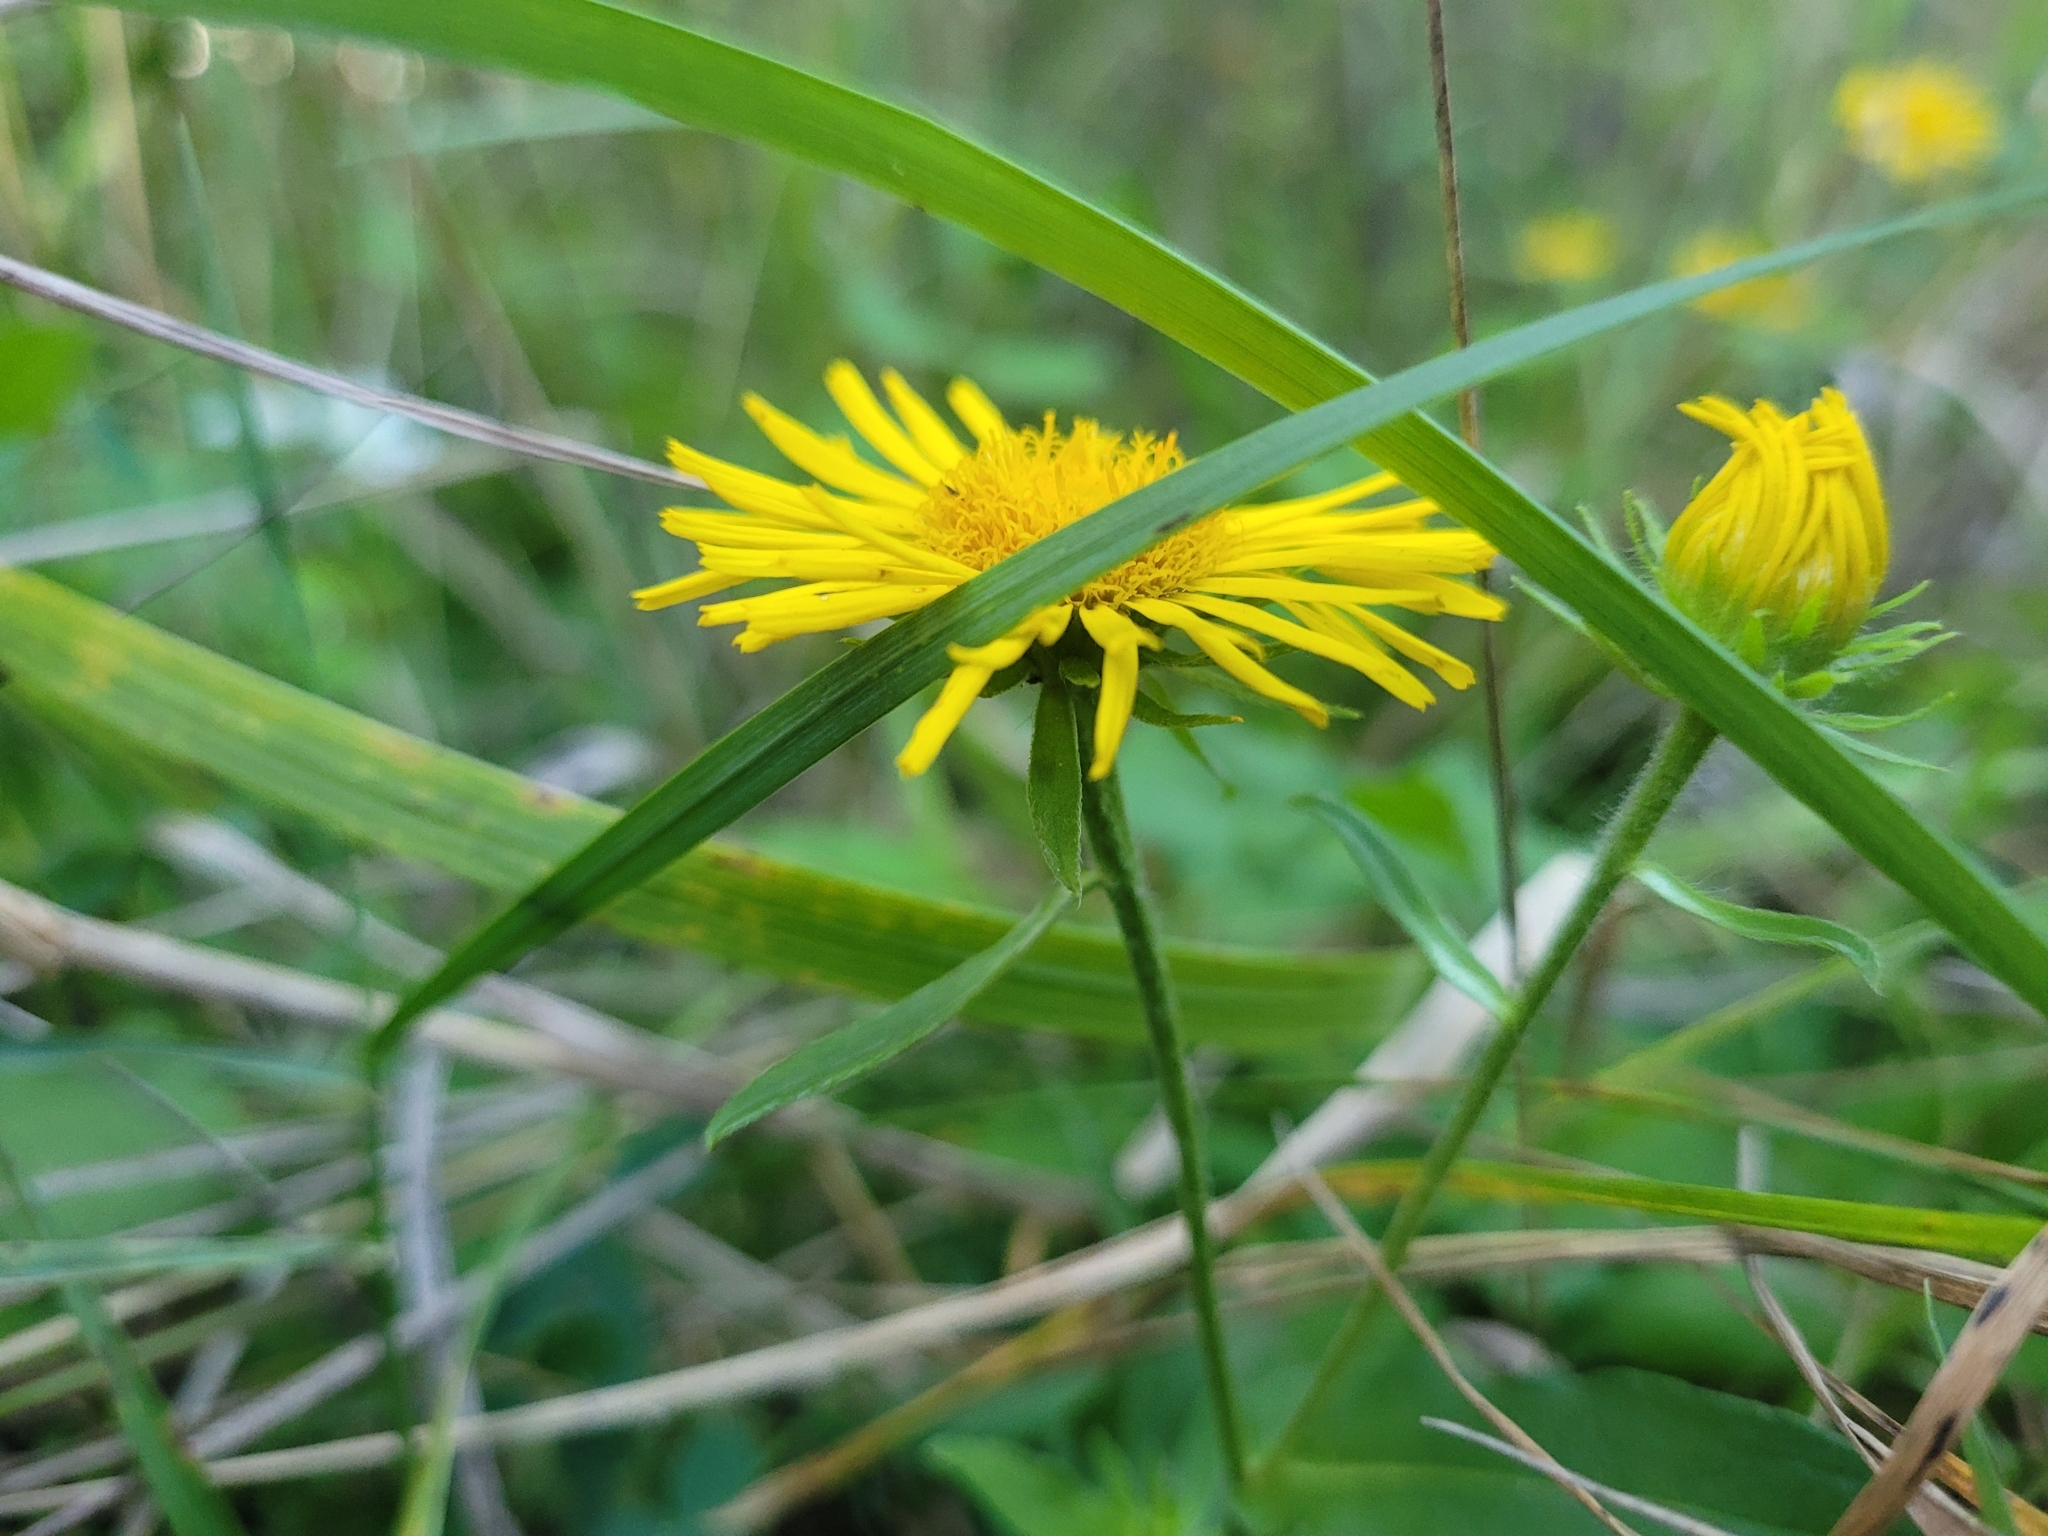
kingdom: Plantae
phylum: Tracheophyta
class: Magnoliopsida
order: Asterales
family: Asteraceae
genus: Pentanema
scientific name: Pentanema britannicum
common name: British elecampane
